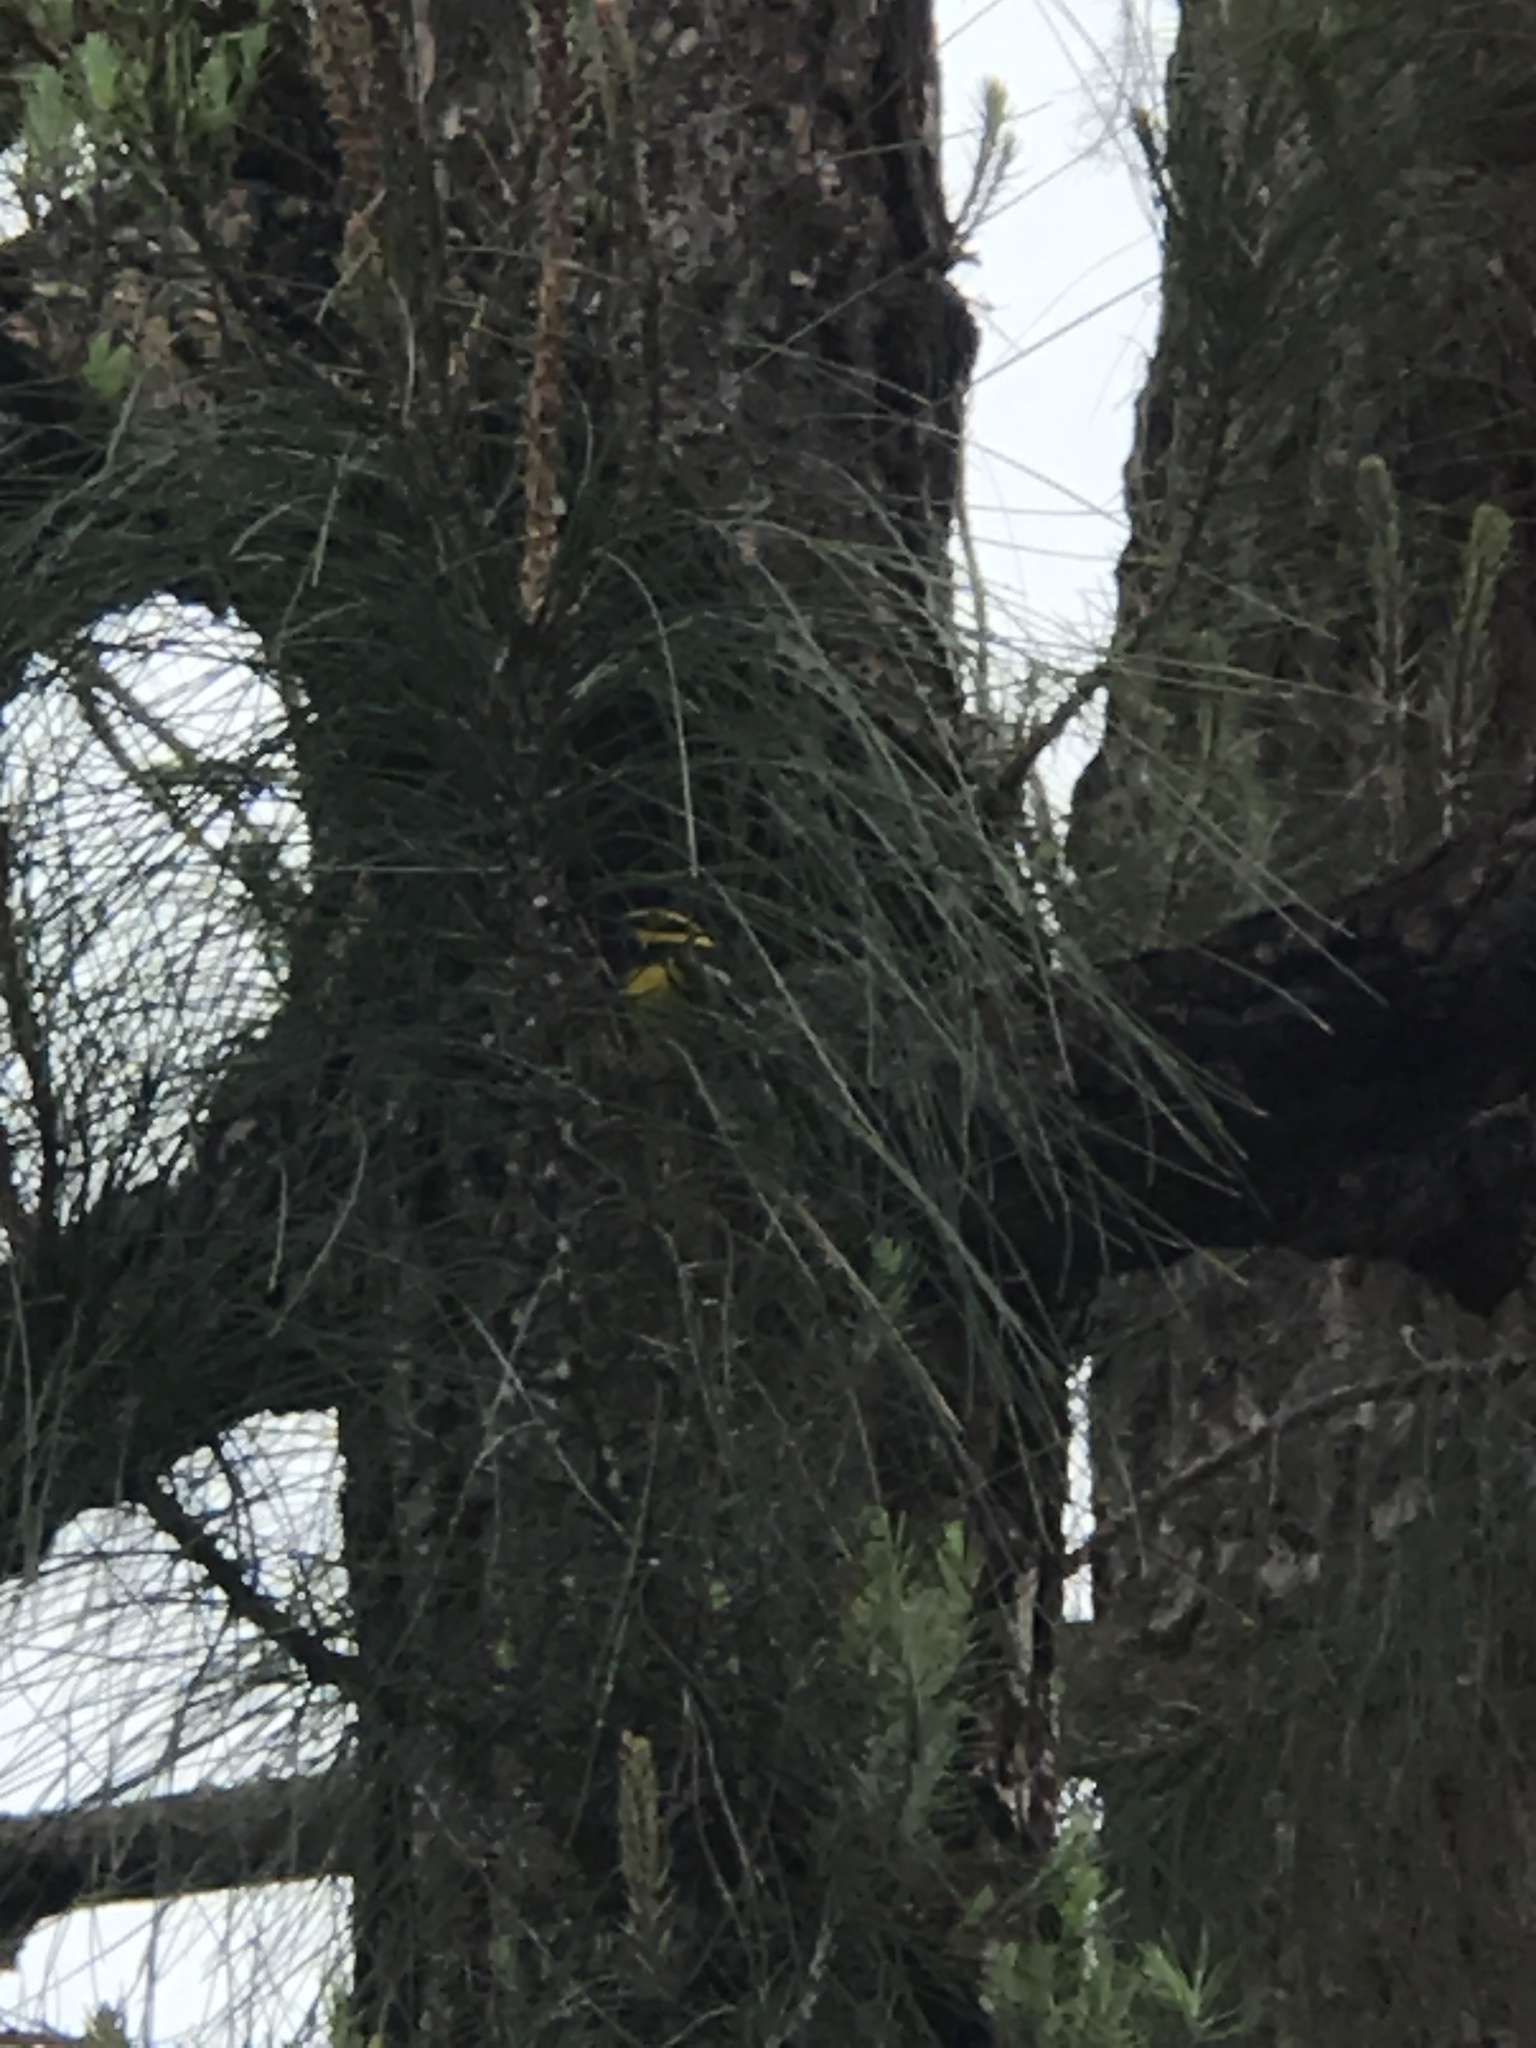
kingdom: Animalia
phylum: Chordata
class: Aves
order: Passeriformes
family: Parulidae
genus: Setophaga
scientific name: Setophaga townsendi
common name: Townsend's warbler
